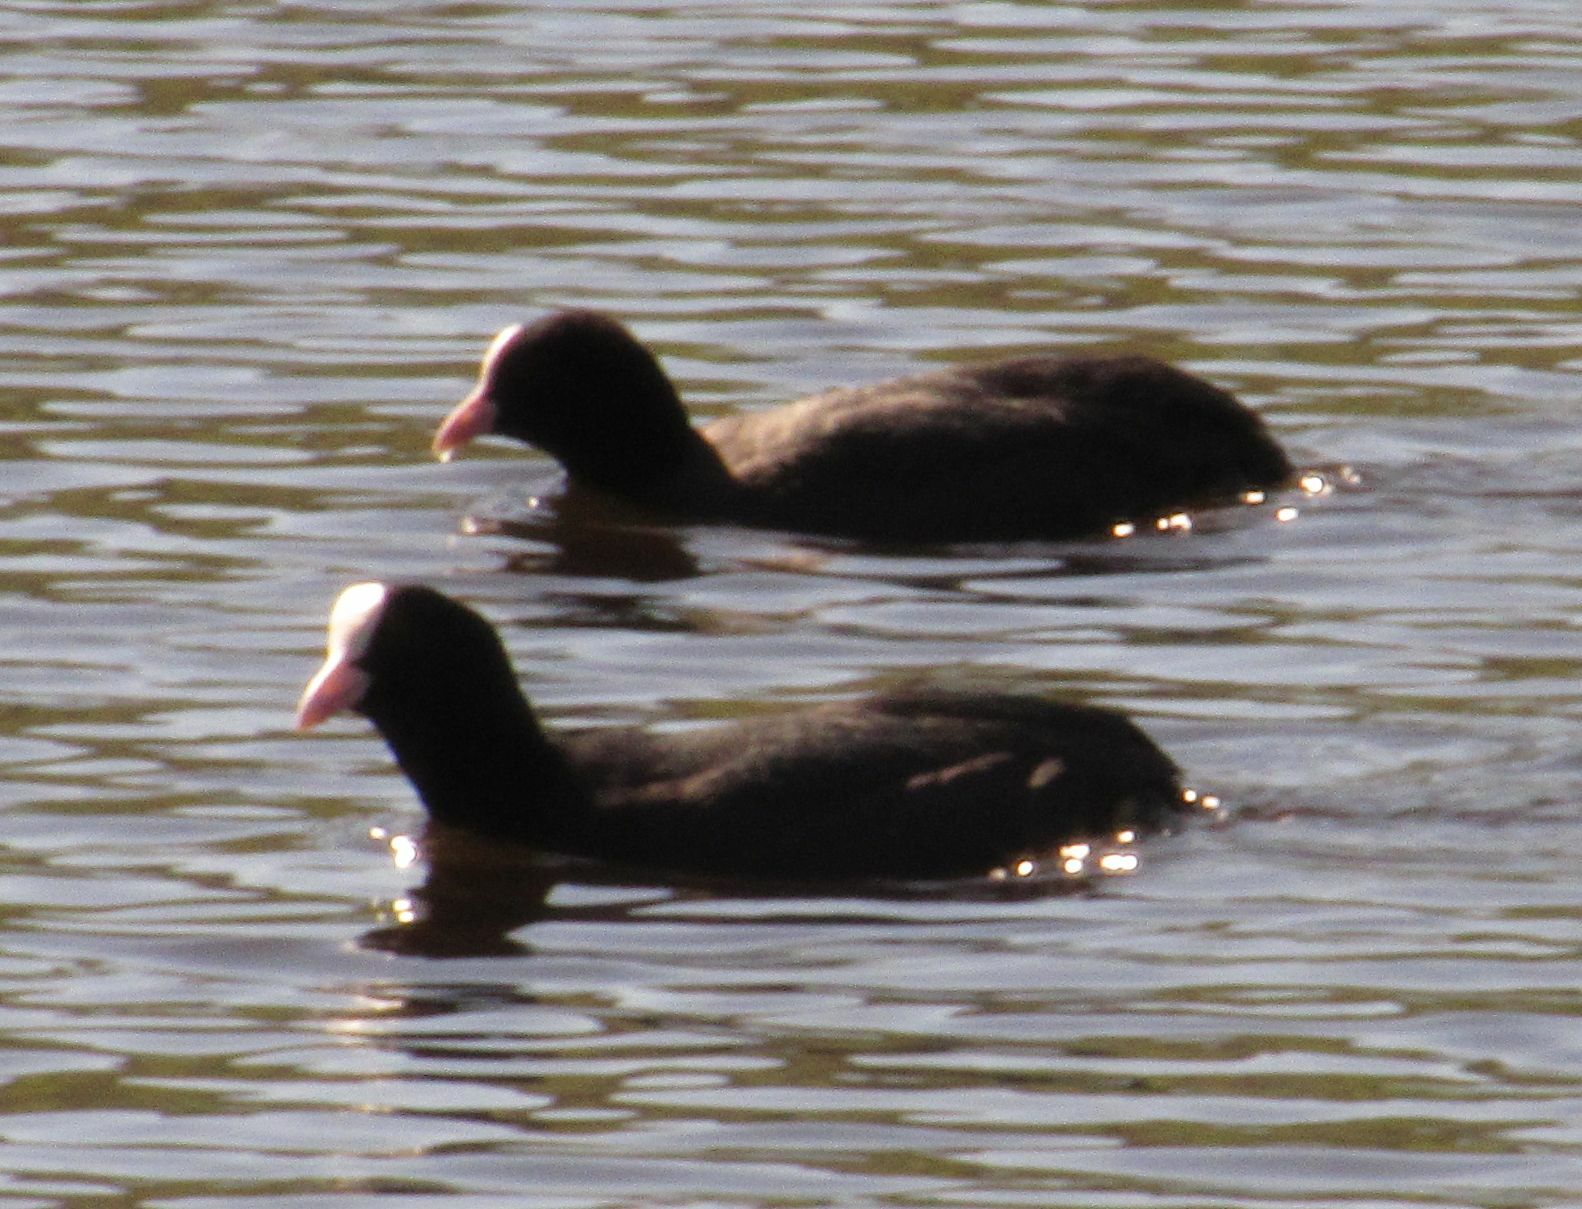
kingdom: Animalia
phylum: Chordata
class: Aves
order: Gruiformes
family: Rallidae
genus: Fulica
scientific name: Fulica atra
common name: Eurasian coot
